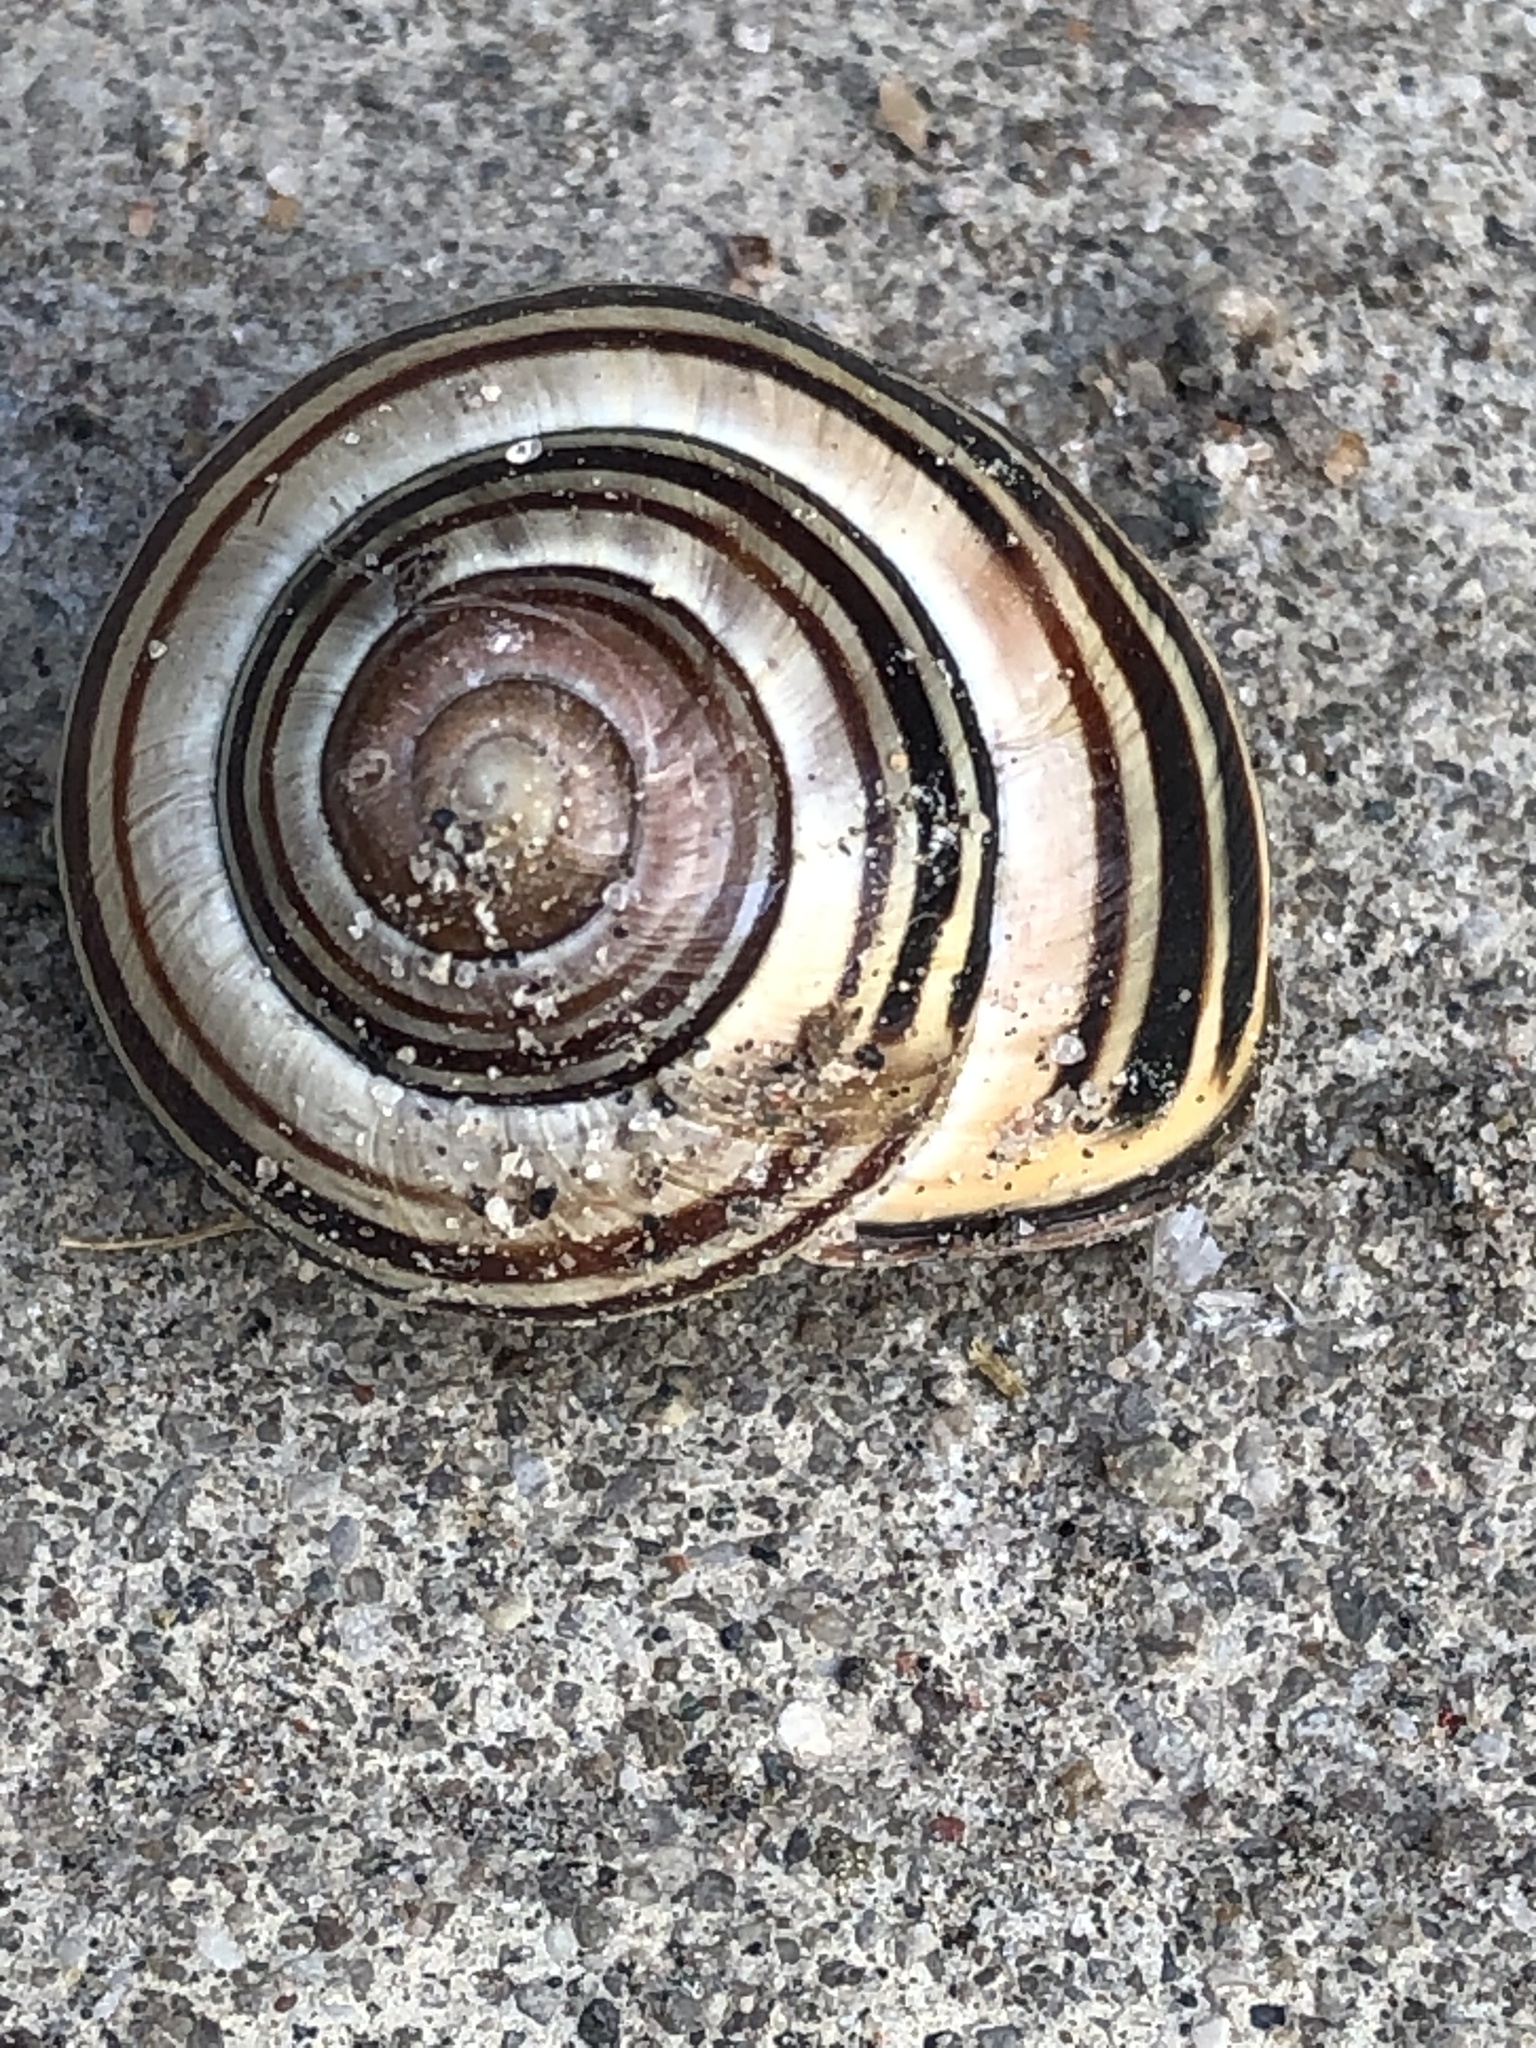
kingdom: Animalia
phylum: Mollusca
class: Gastropoda
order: Stylommatophora
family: Helicidae
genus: Cepaea
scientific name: Cepaea nemoralis
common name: Grovesnail
